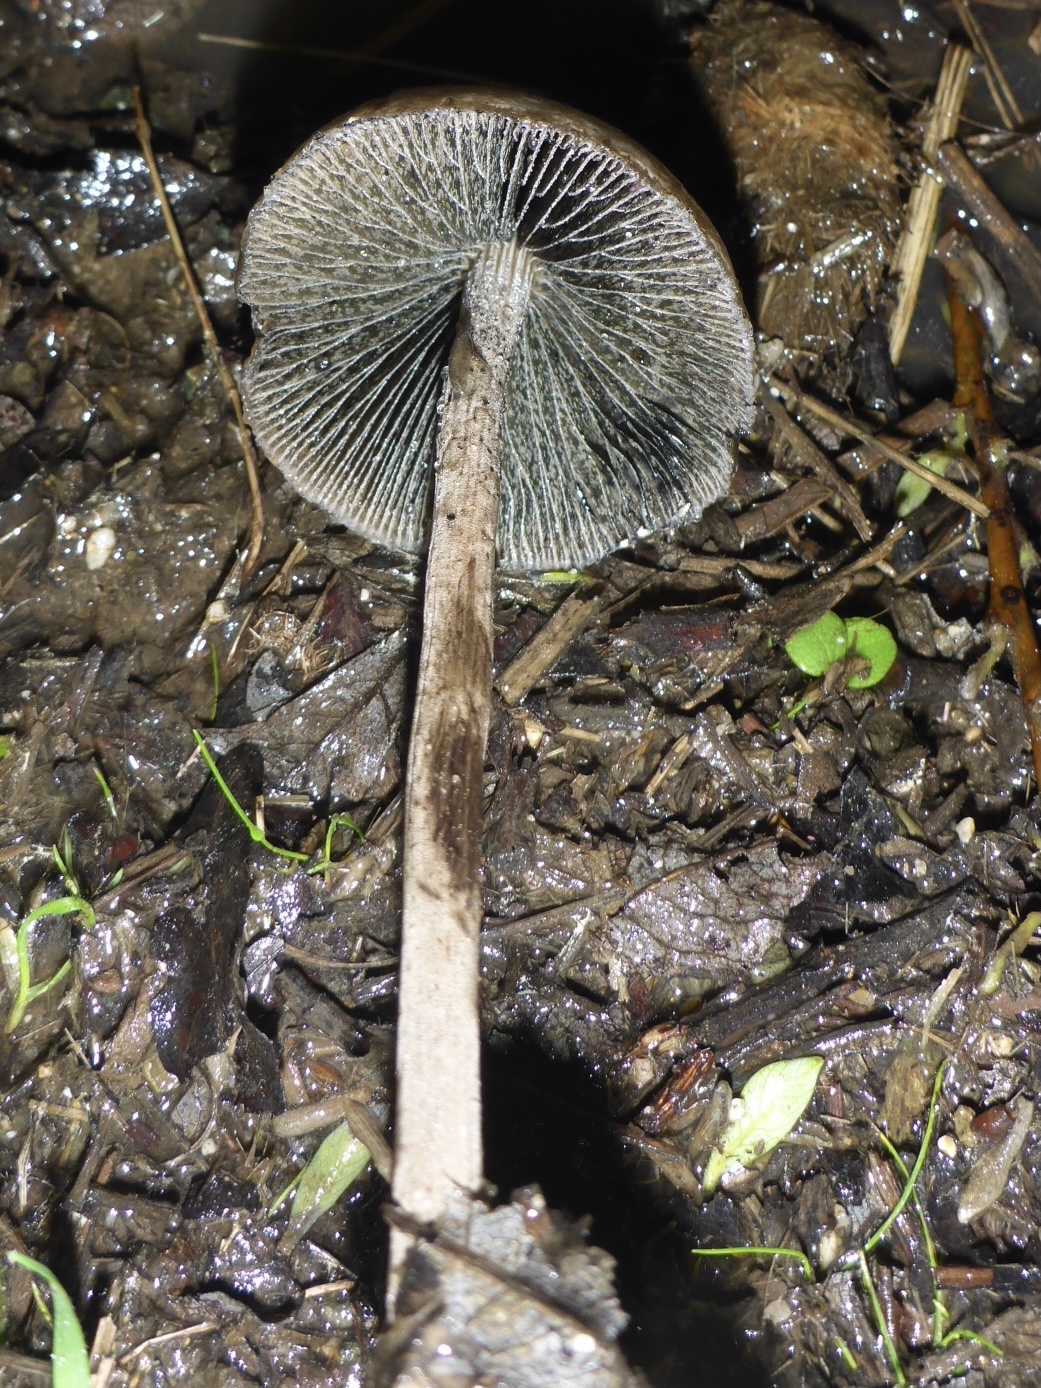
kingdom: Fungi
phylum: Basidiomycota
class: Agaricomycetes
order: Agaricales
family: Bolbitiaceae
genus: Panaeolus
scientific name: Panaeolus papilionaceus
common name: Petticoat mottlegill
